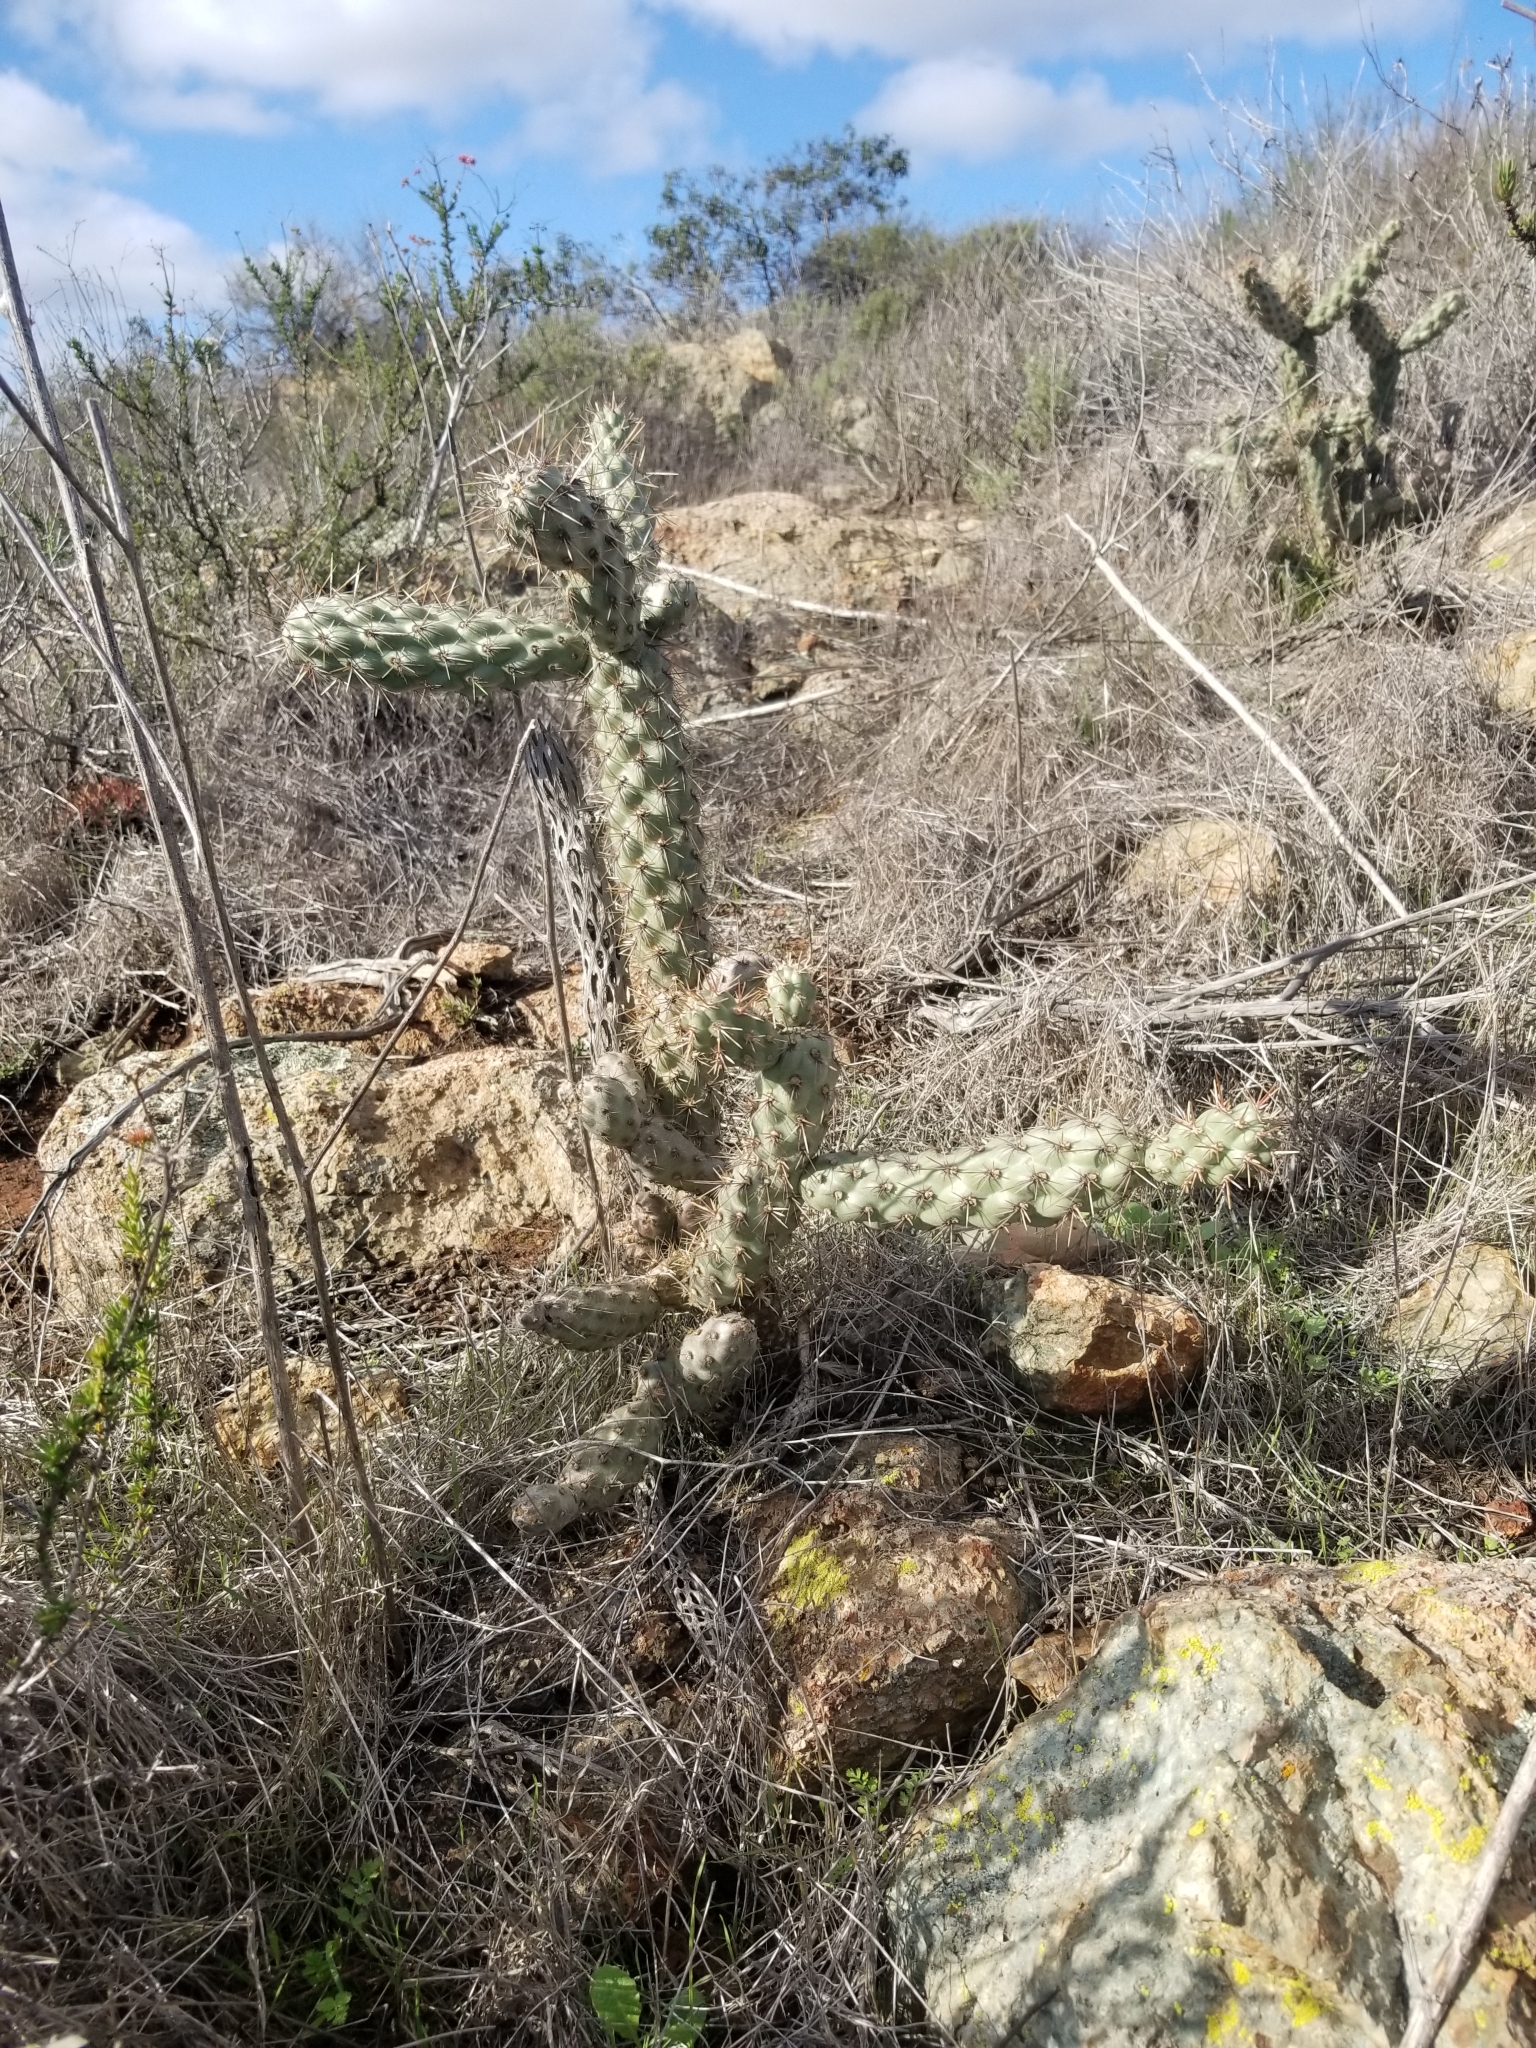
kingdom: Plantae
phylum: Tracheophyta
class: Magnoliopsida
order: Caryophyllales
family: Cactaceae
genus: Cylindropuntia
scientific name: Cylindropuntia prolifera
